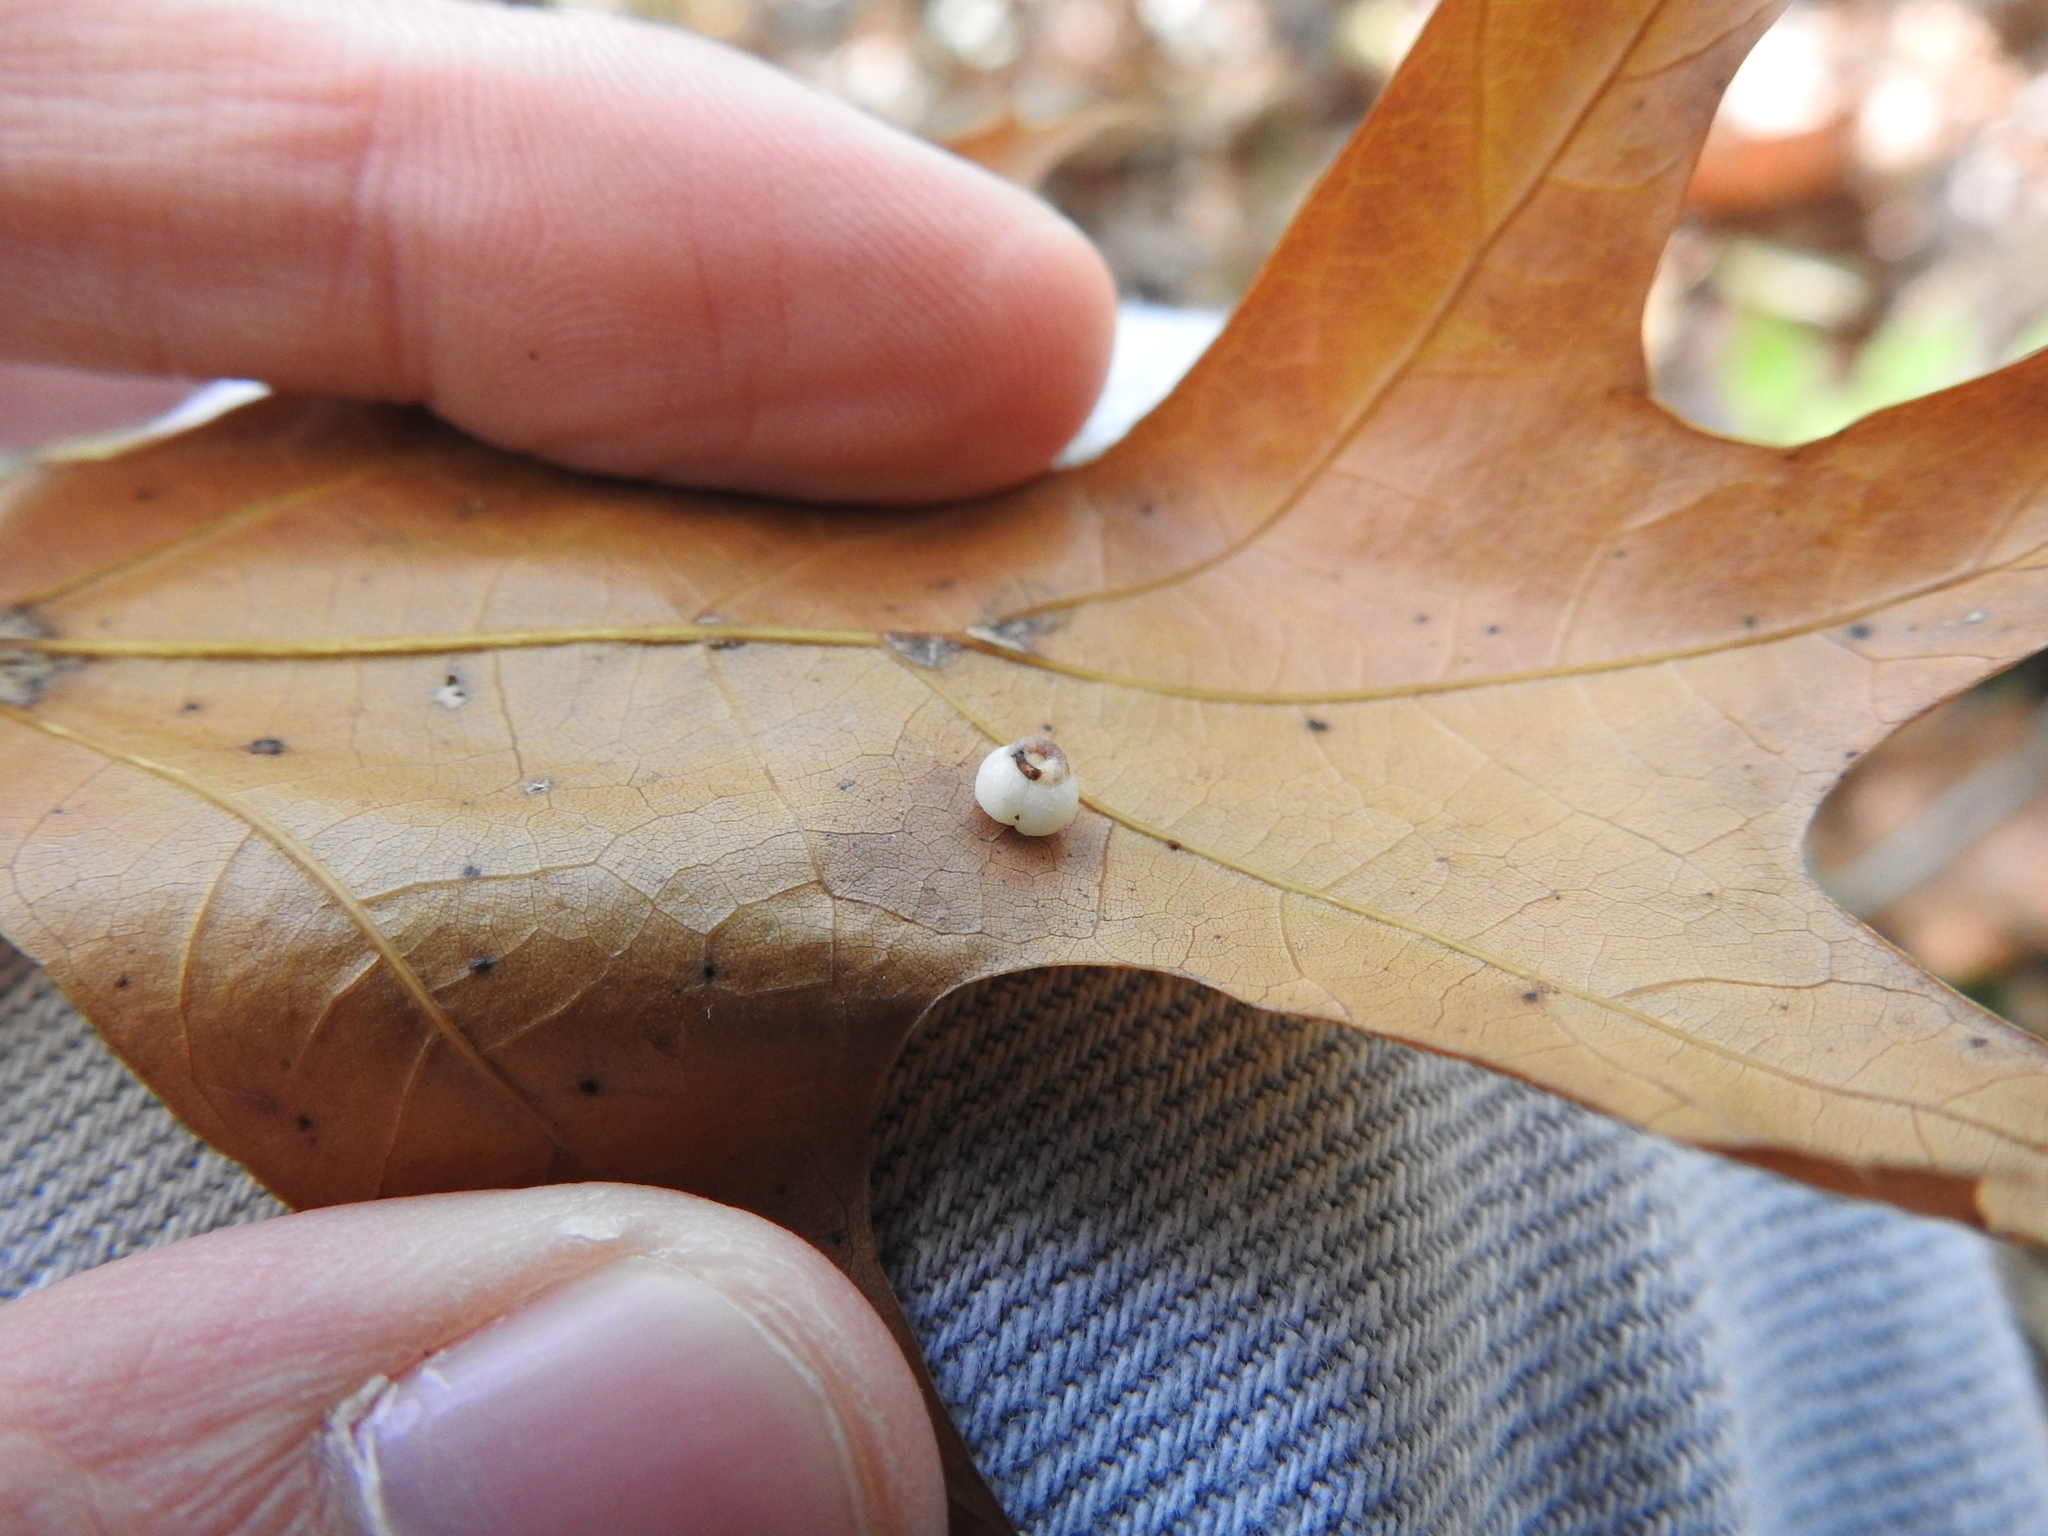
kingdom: Animalia
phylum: Arthropoda
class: Insecta
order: Hymenoptera
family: Cynipidae
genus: Zopheroteras
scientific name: Zopheroteras
